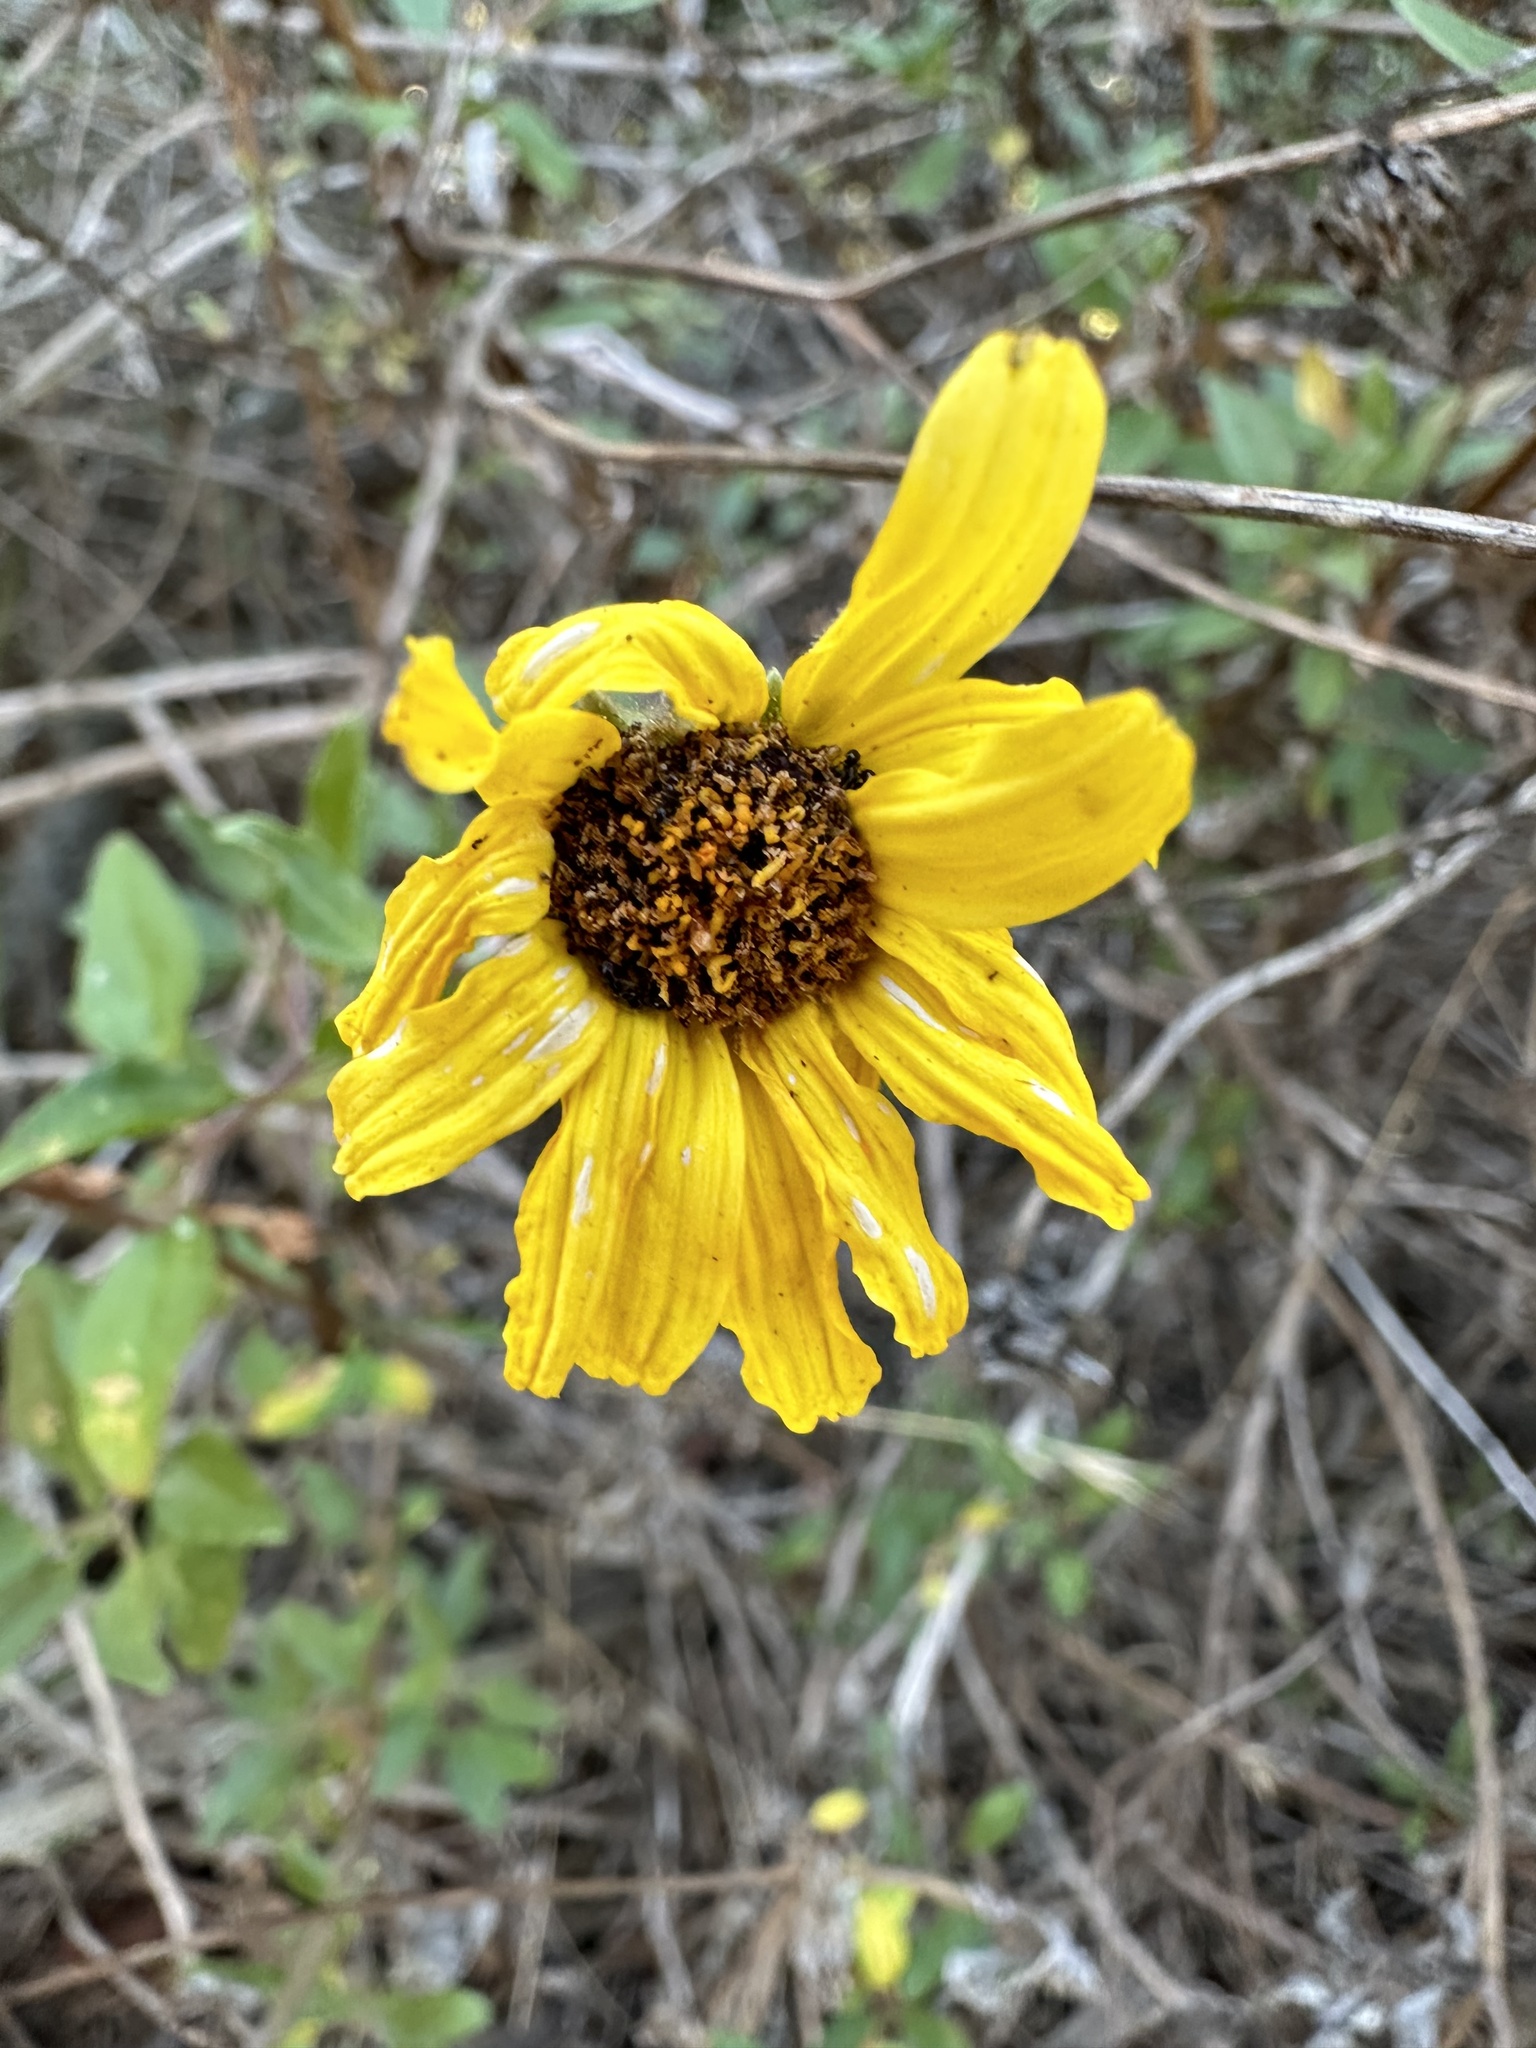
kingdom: Plantae
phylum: Tracheophyta
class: Magnoliopsida
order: Asterales
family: Asteraceae
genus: Encelia
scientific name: Encelia californica
